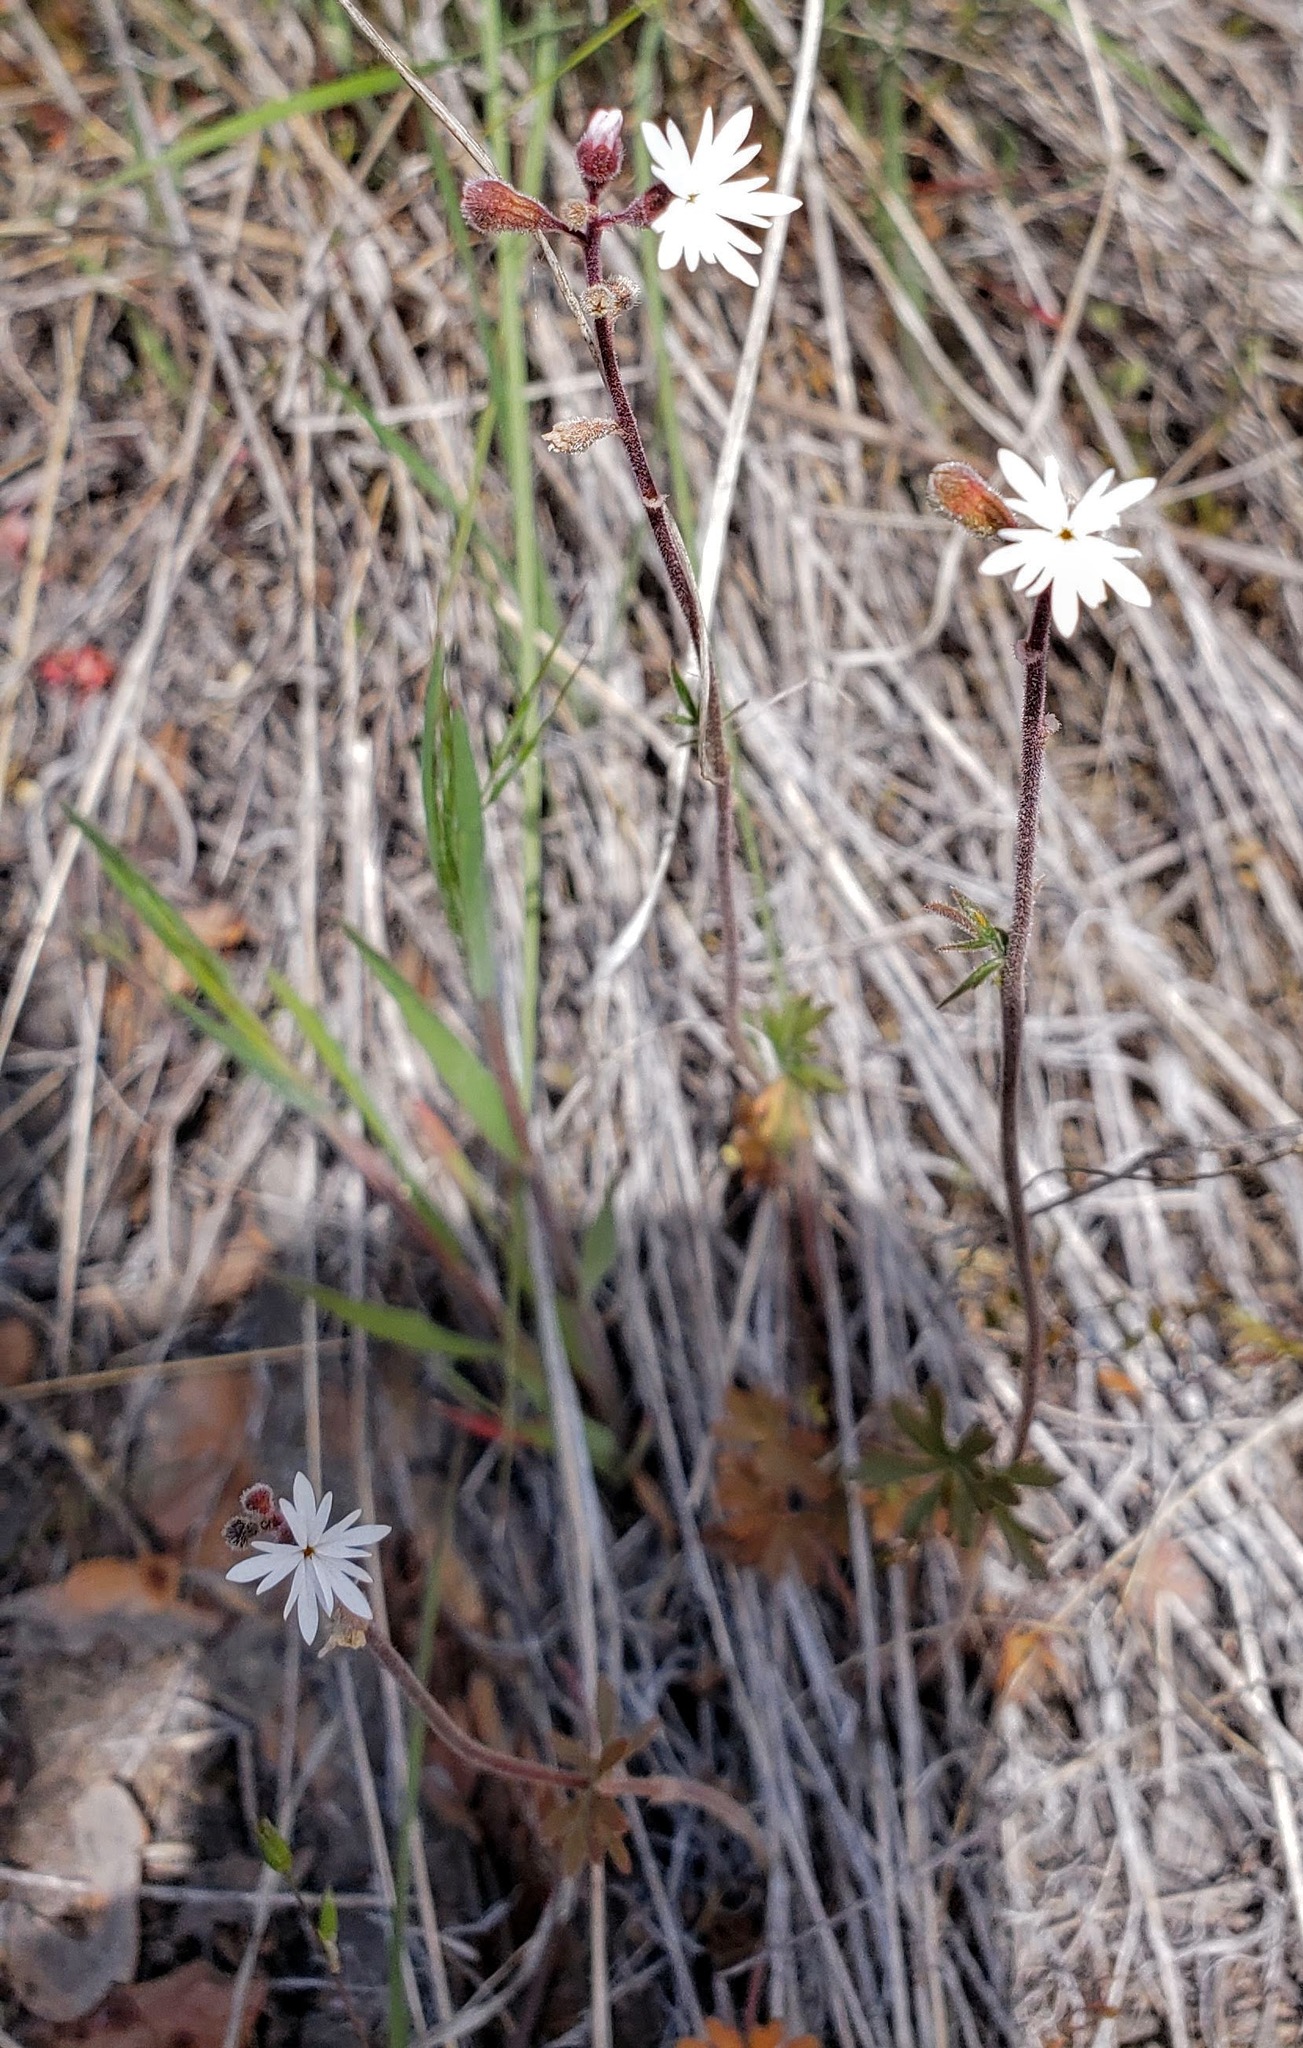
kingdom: Plantae
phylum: Tracheophyta
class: Magnoliopsida
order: Saxifragales
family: Saxifragaceae
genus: Lithophragma
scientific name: Lithophragma parviflorum
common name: Small-flowered fringe-cup
